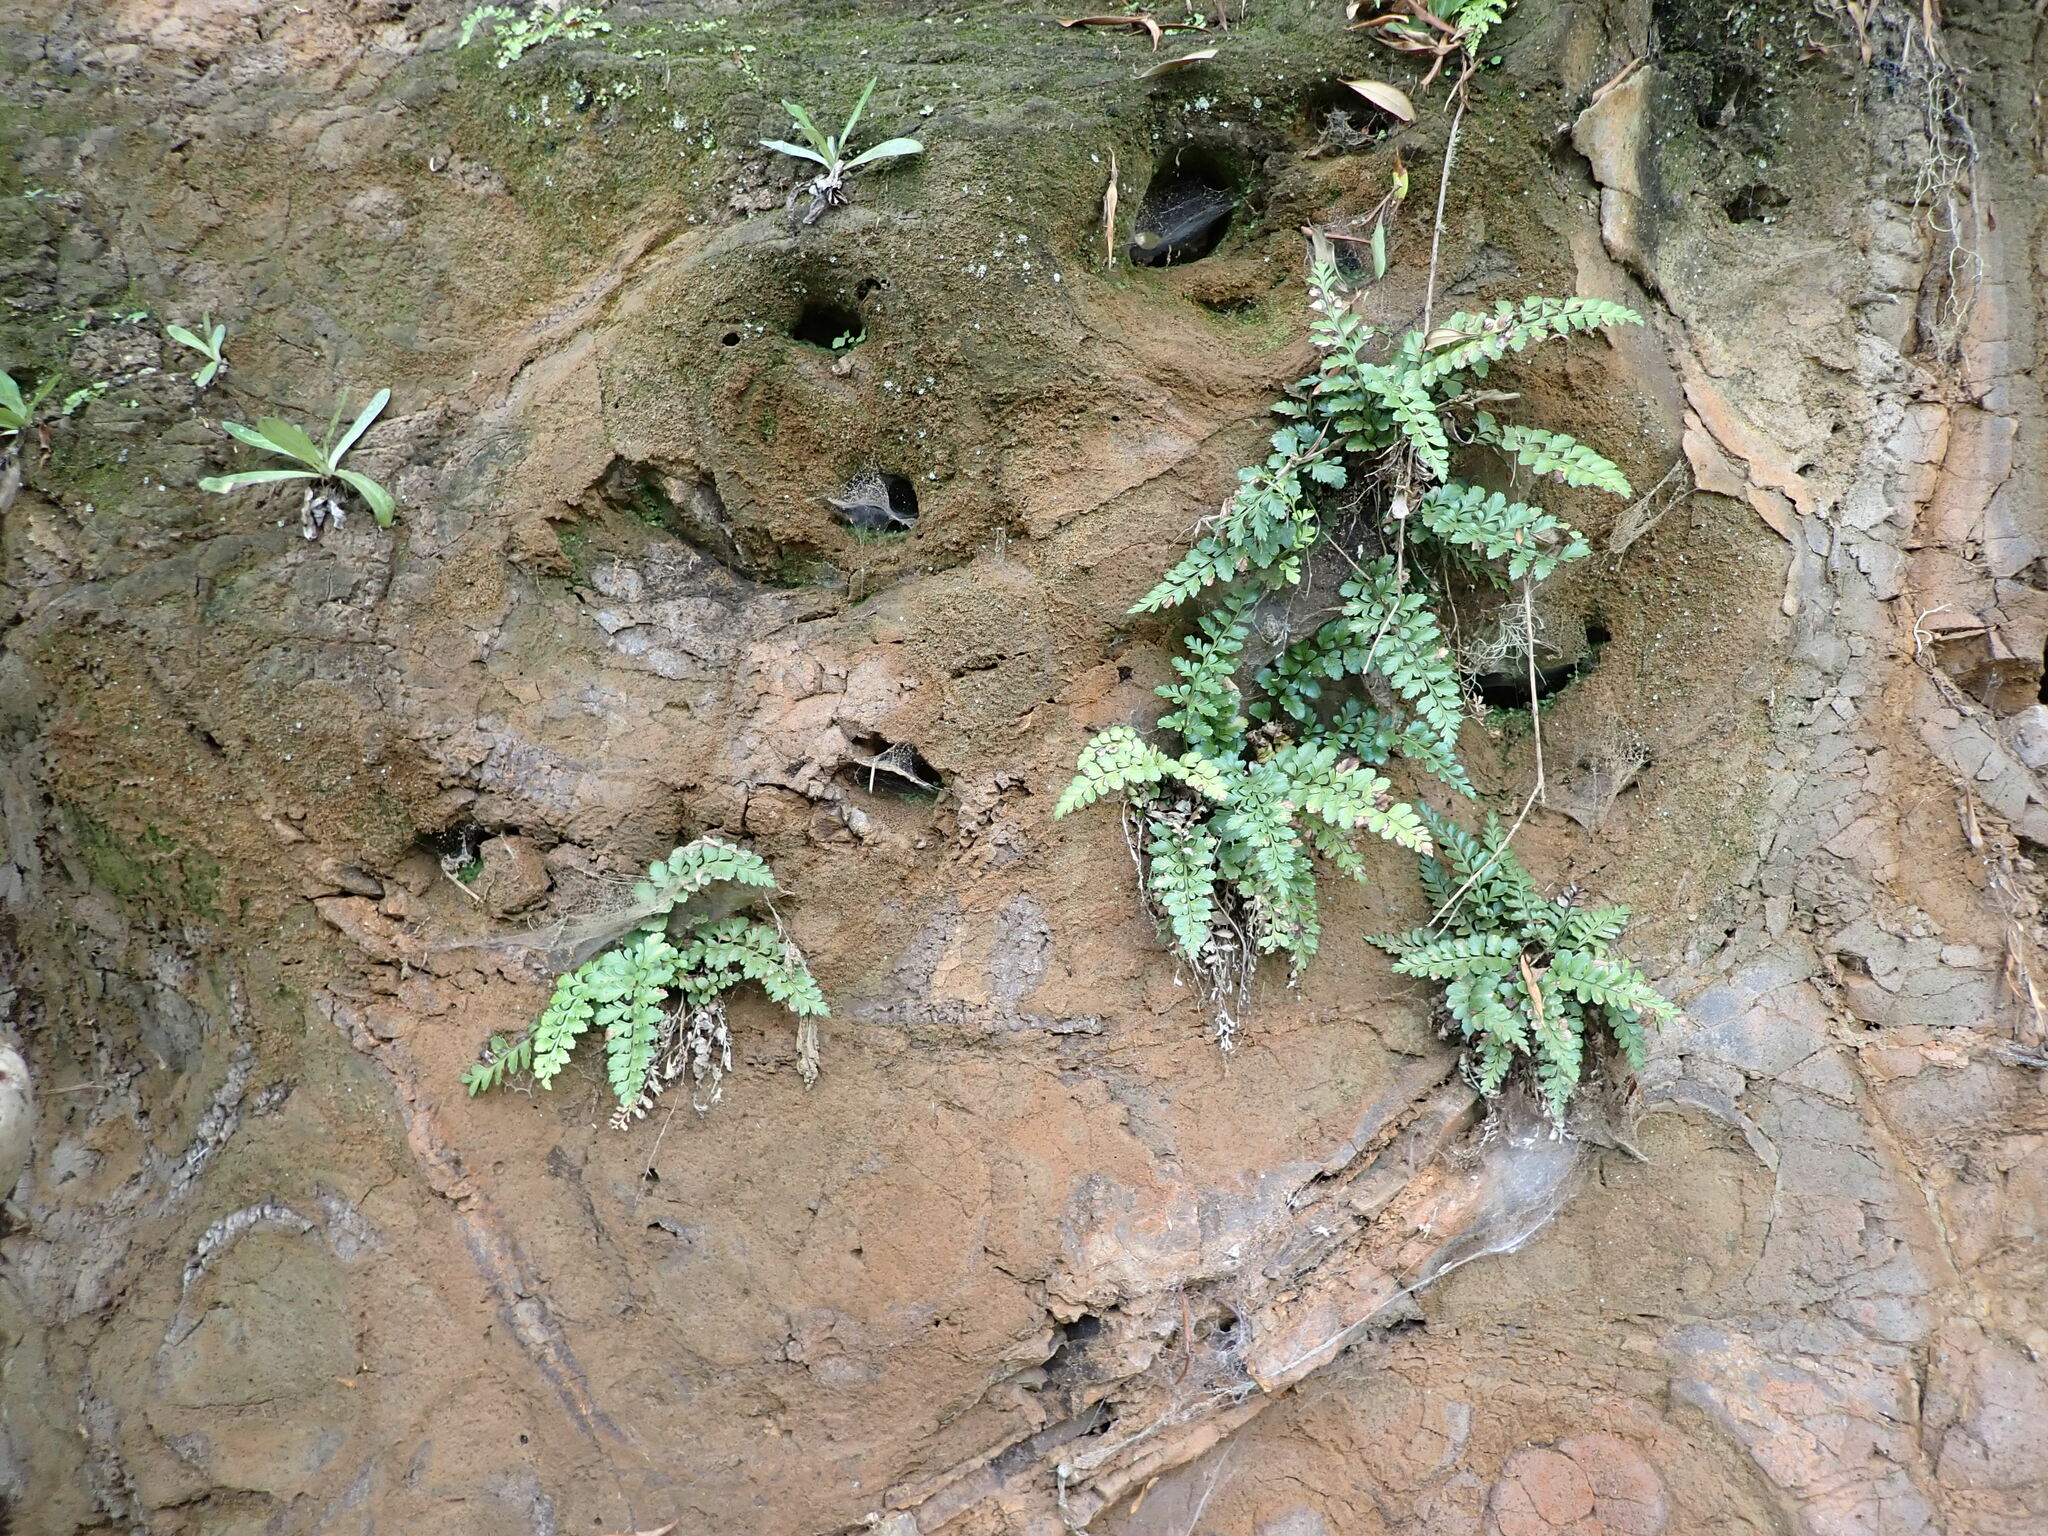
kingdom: Plantae
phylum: Tracheophyta
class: Polypodiopsida
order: Polypodiales
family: Aspleniaceae
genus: Asplenium
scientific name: Asplenium difforme
